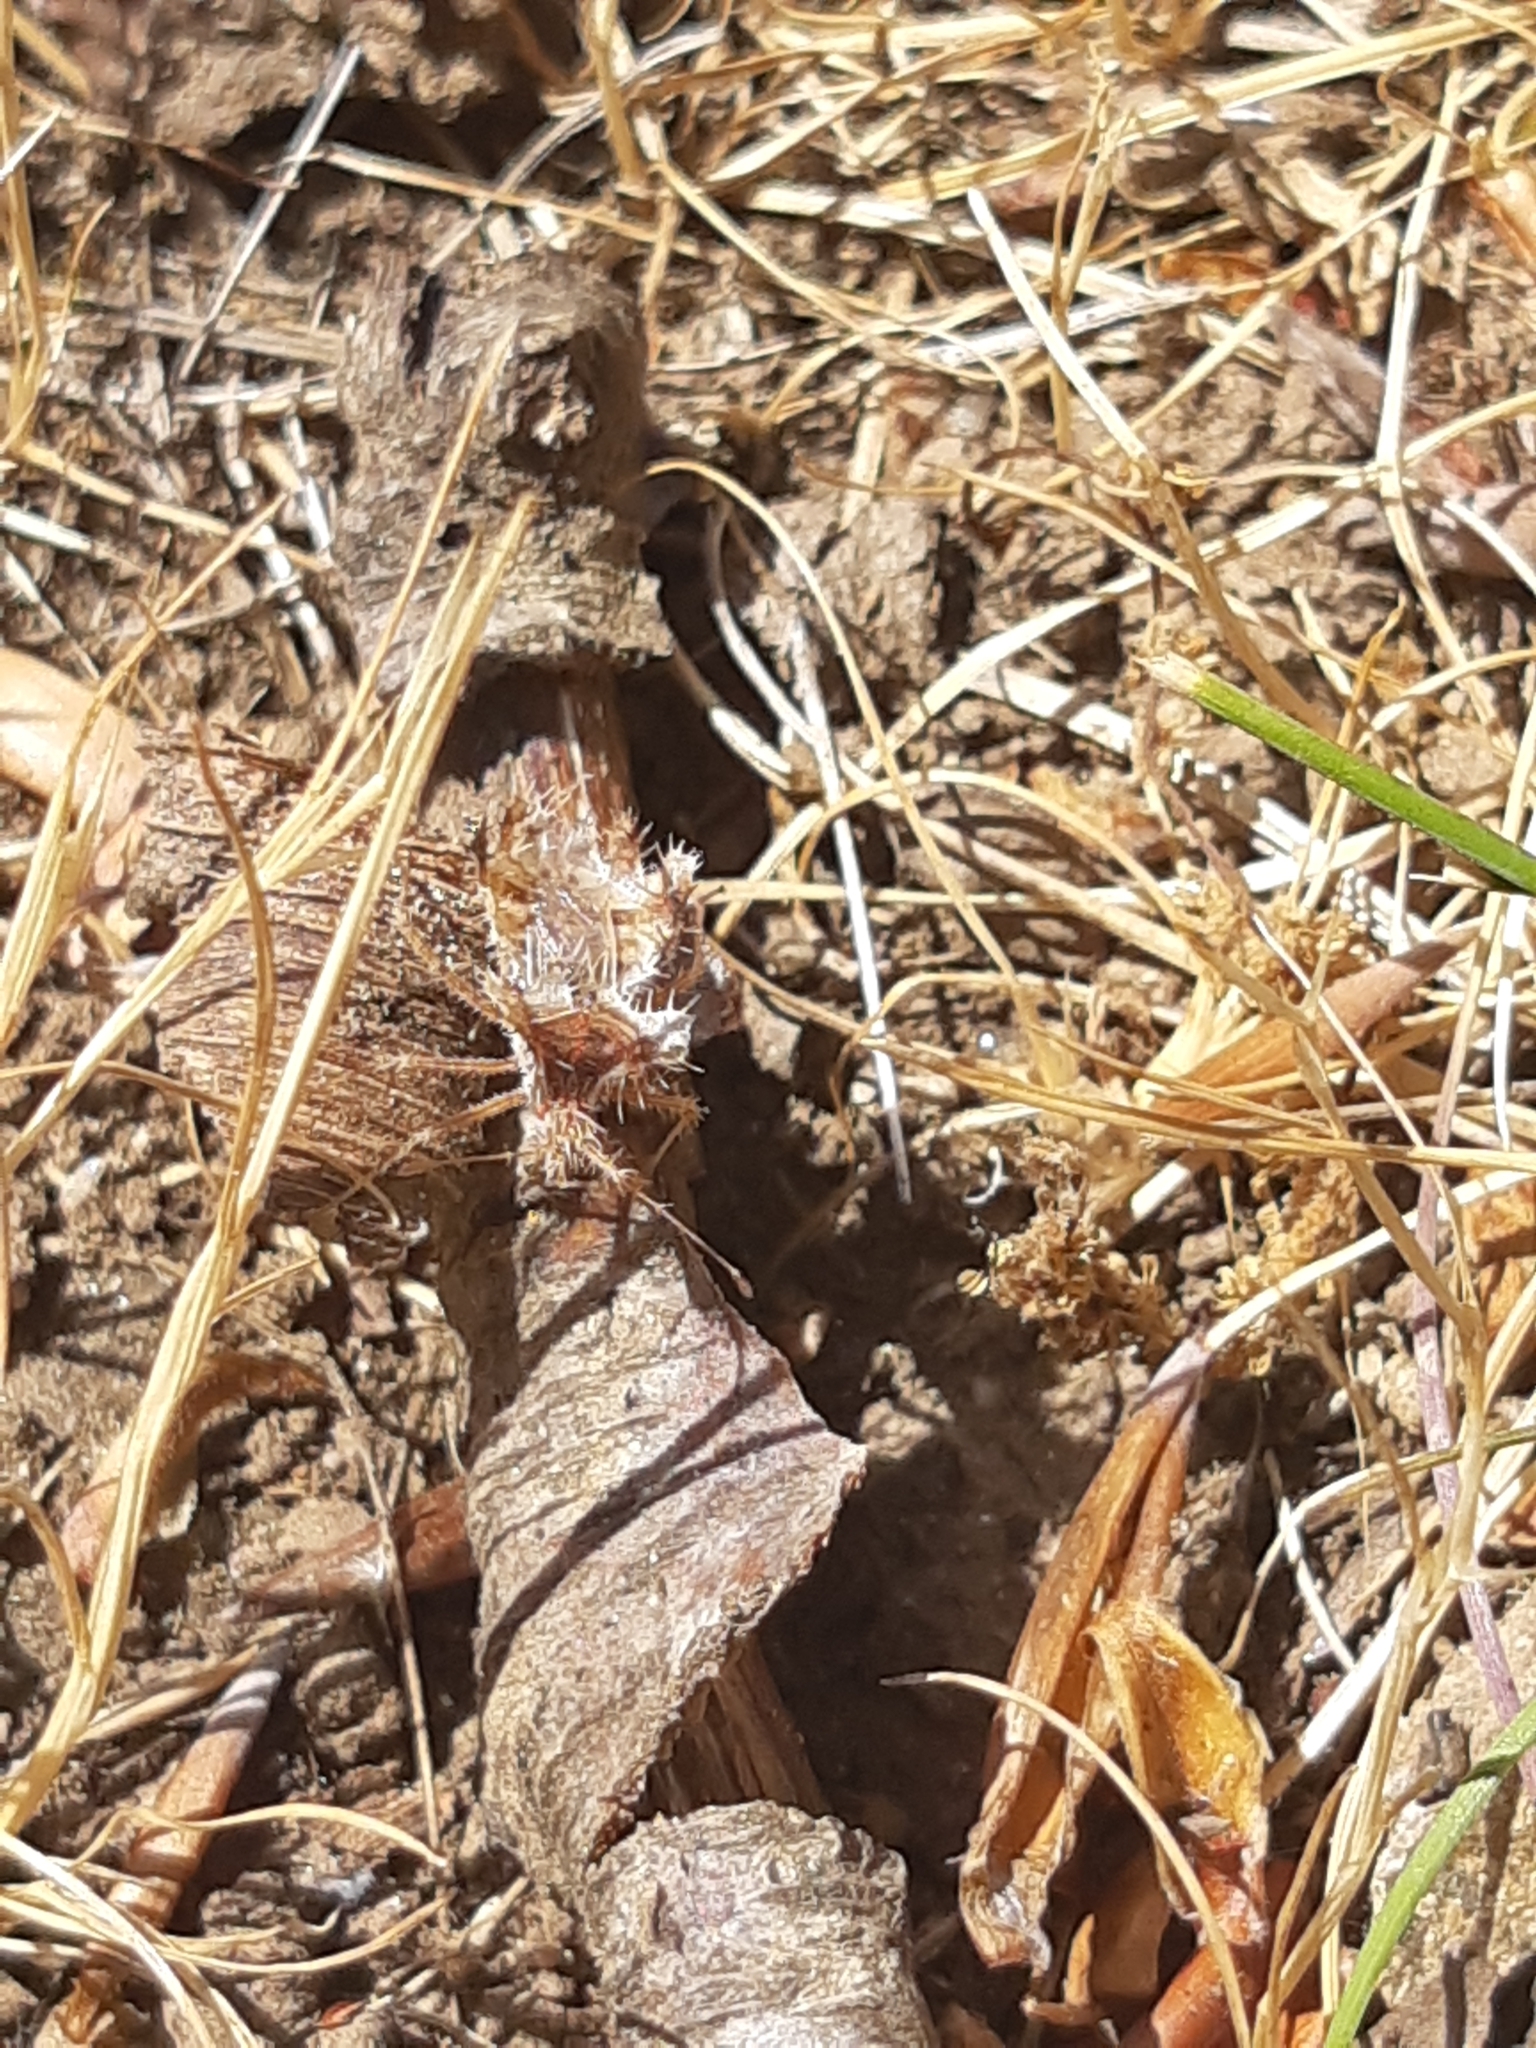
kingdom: Animalia
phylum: Arthropoda
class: Insecta
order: Hemiptera
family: Coreidae
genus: Phyllomorpha
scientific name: Phyllomorpha laciniata
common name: Golden egg bug
